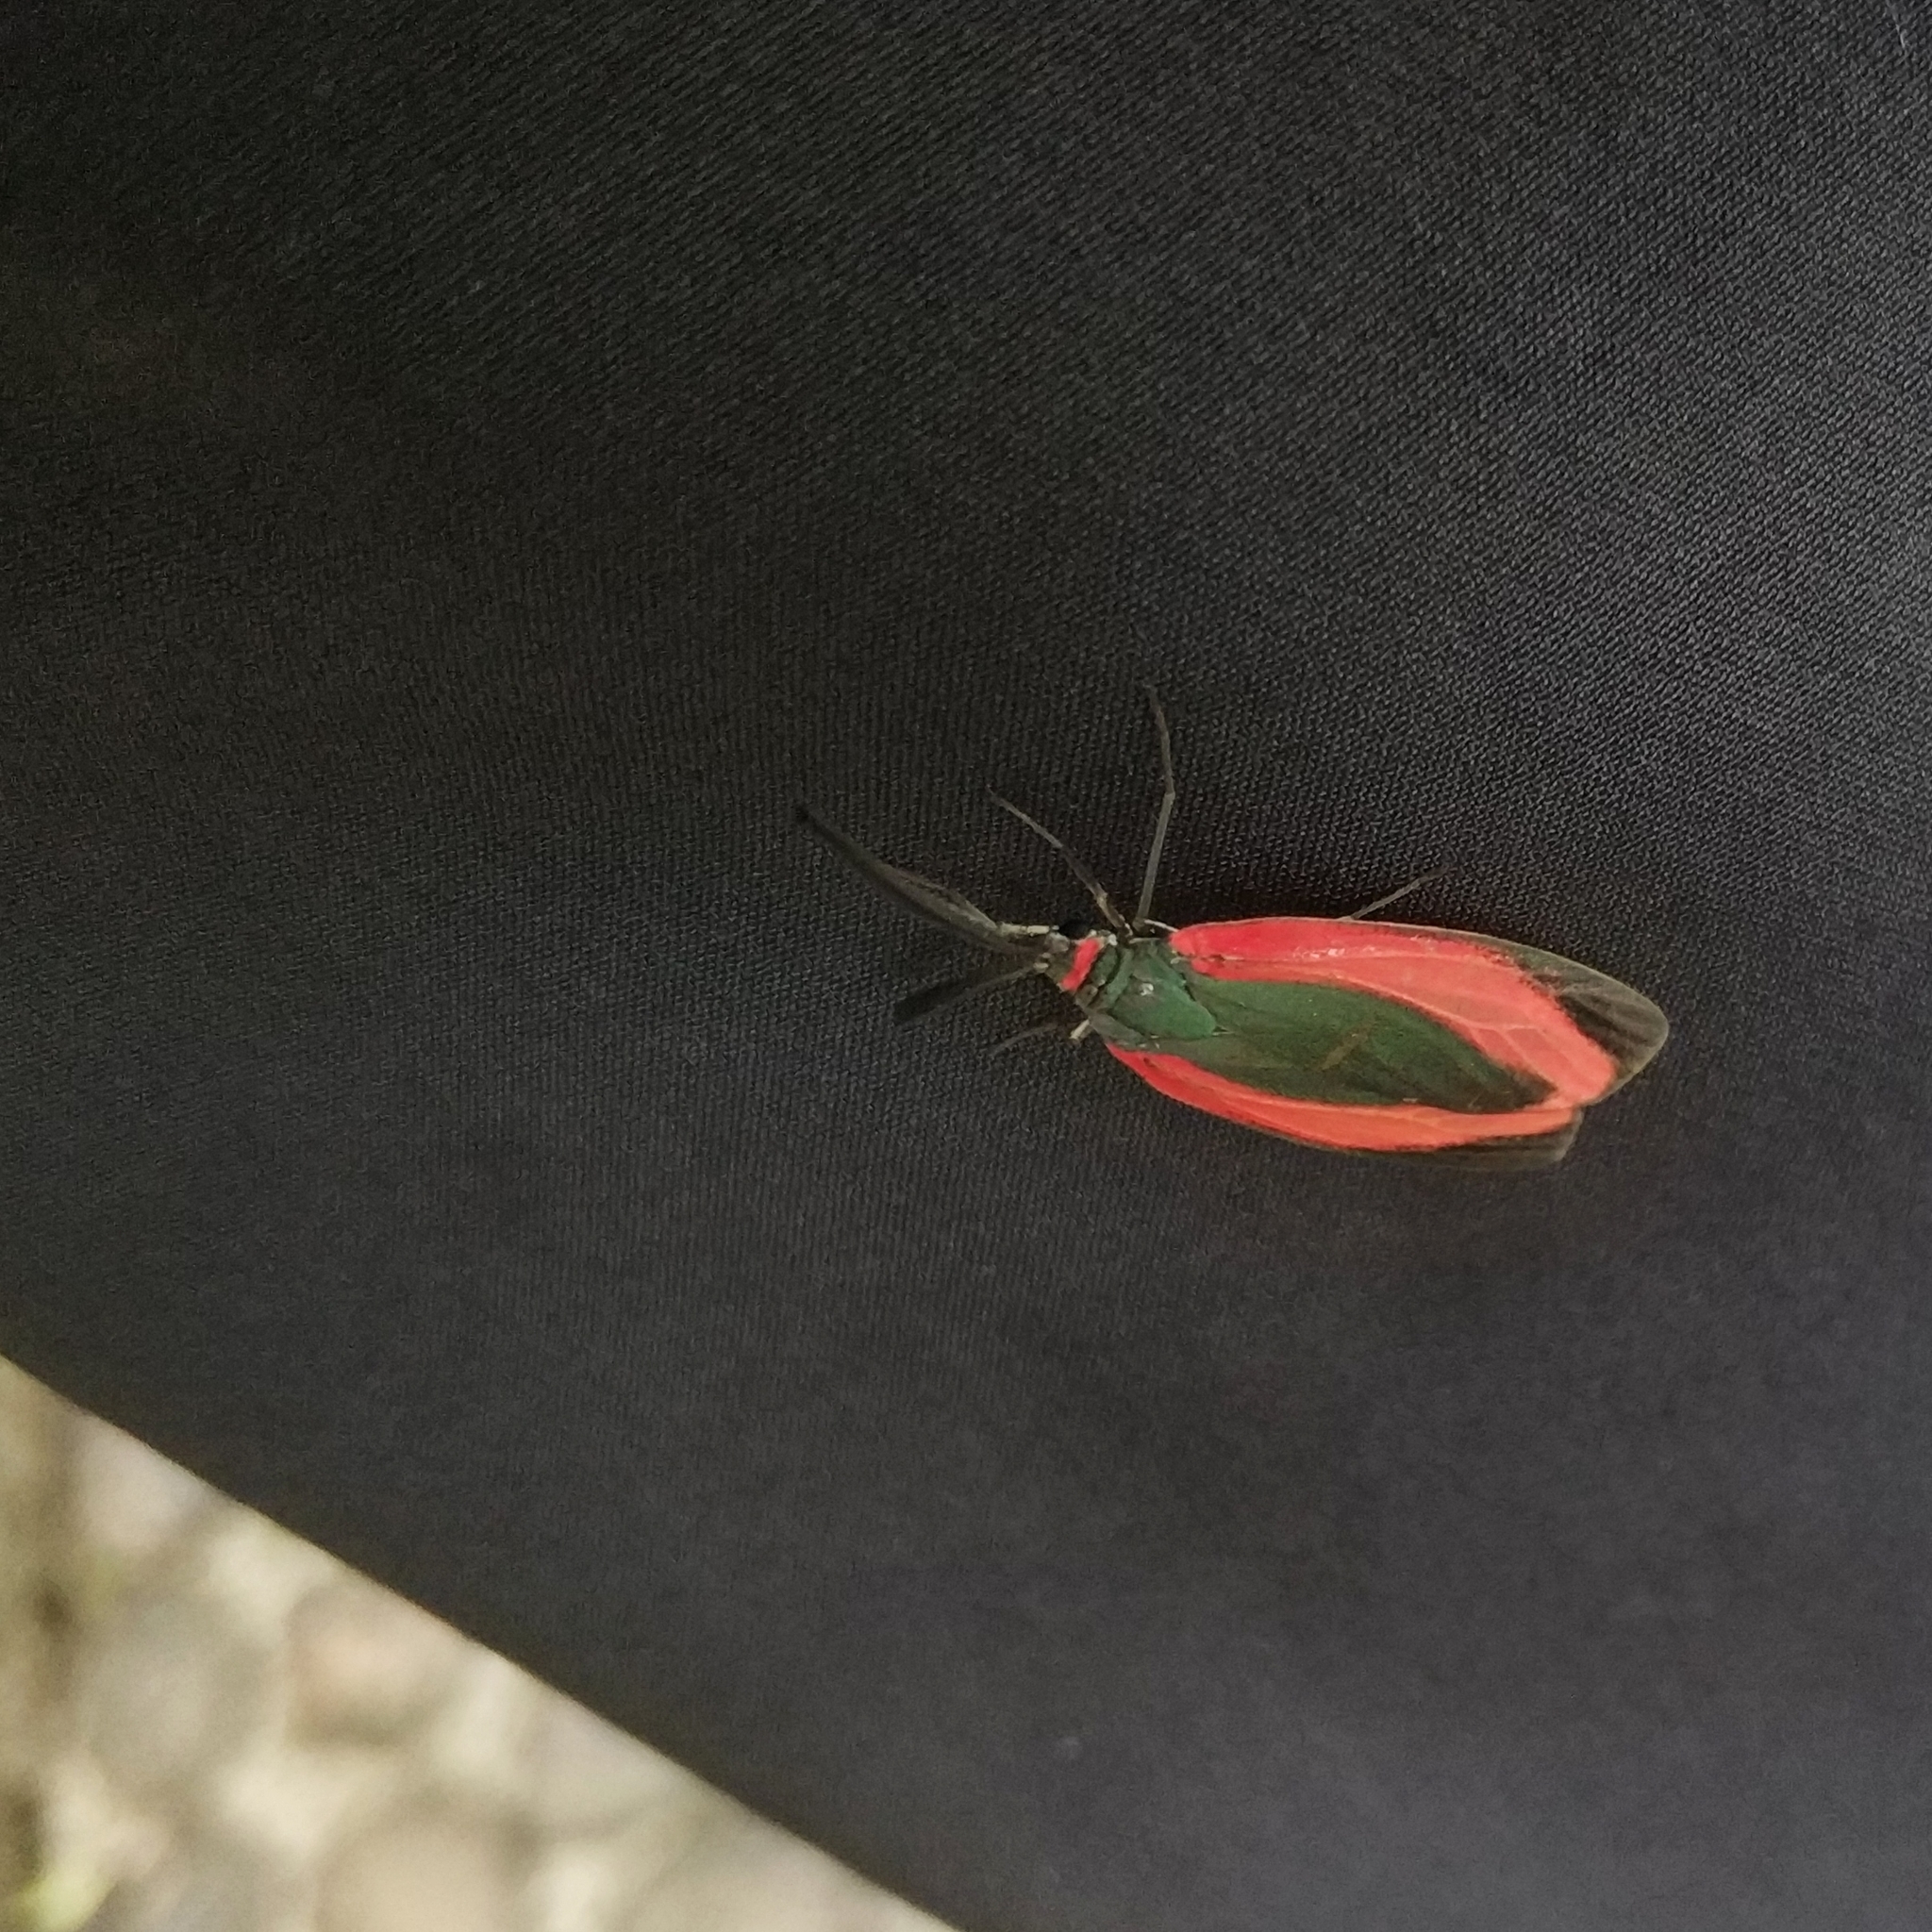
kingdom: Animalia
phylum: Arthropoda
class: Insecta
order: Lepidoptera
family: Zygaenidae
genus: Retina
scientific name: Retina rubrivitta
